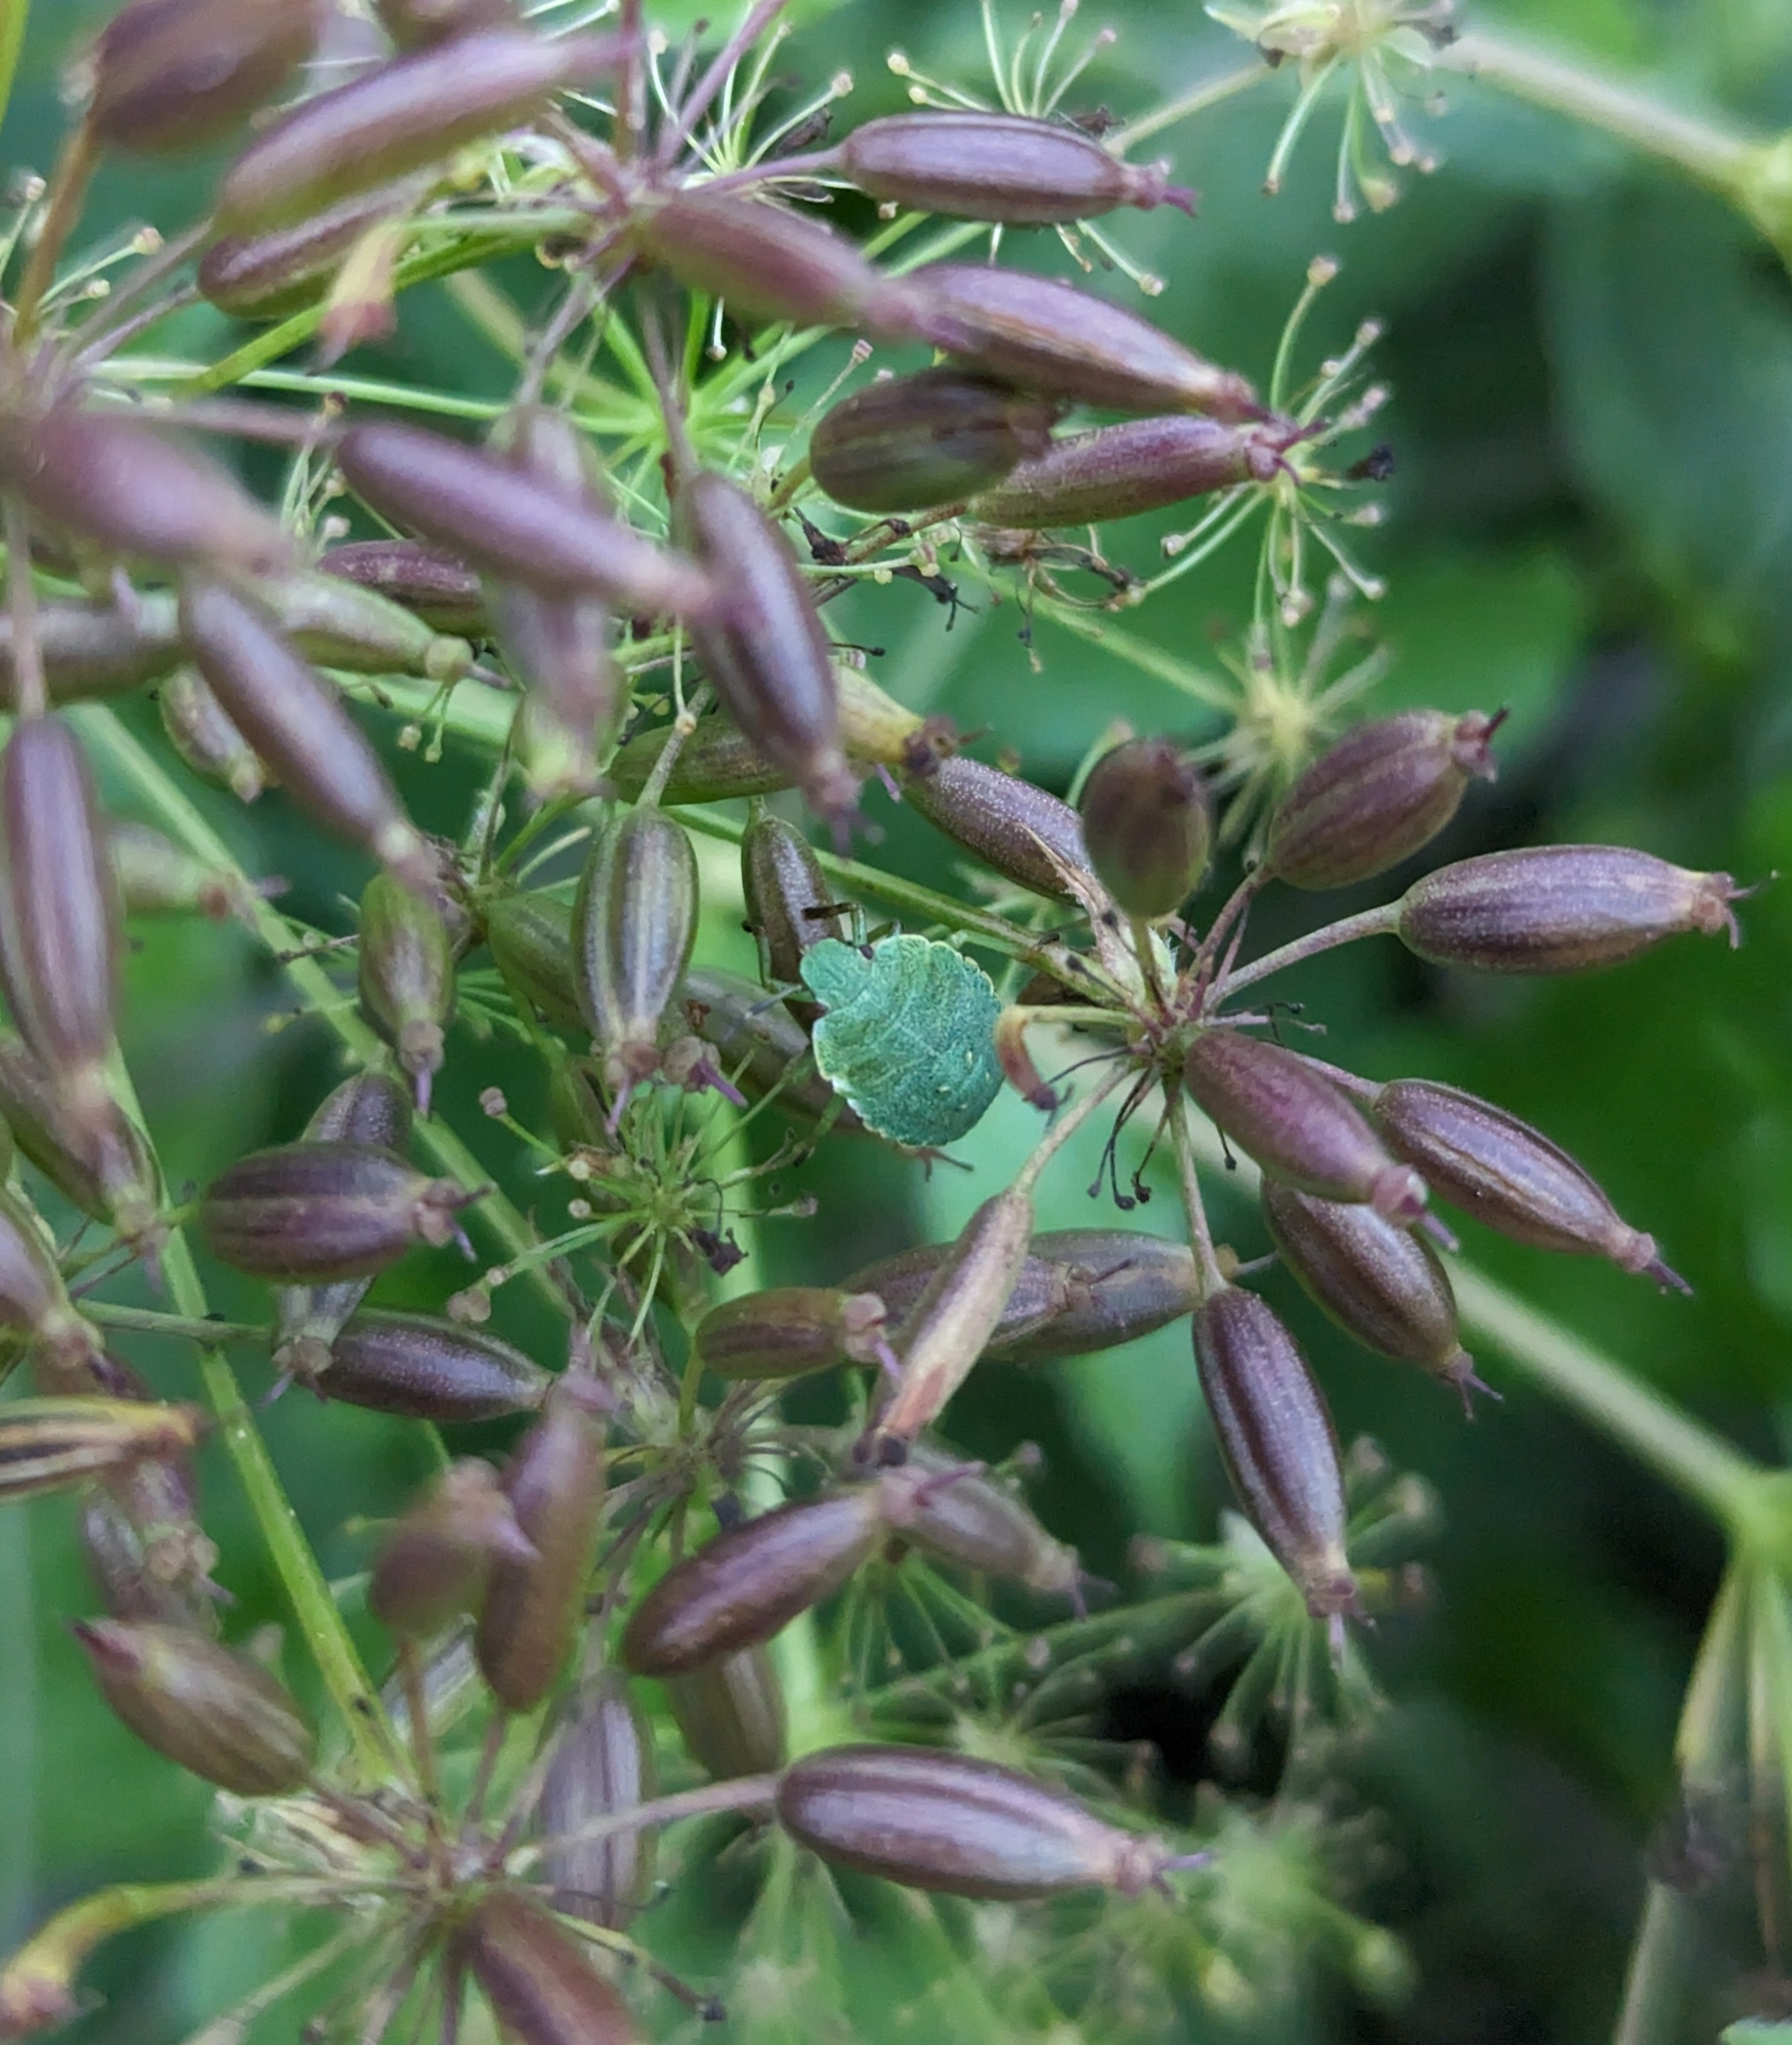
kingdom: Animalia
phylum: Arthropoda
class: Insecta
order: Hemiptera
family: Pentatomidae
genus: Palomena
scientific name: Palomena prasina
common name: Green shieldbug
